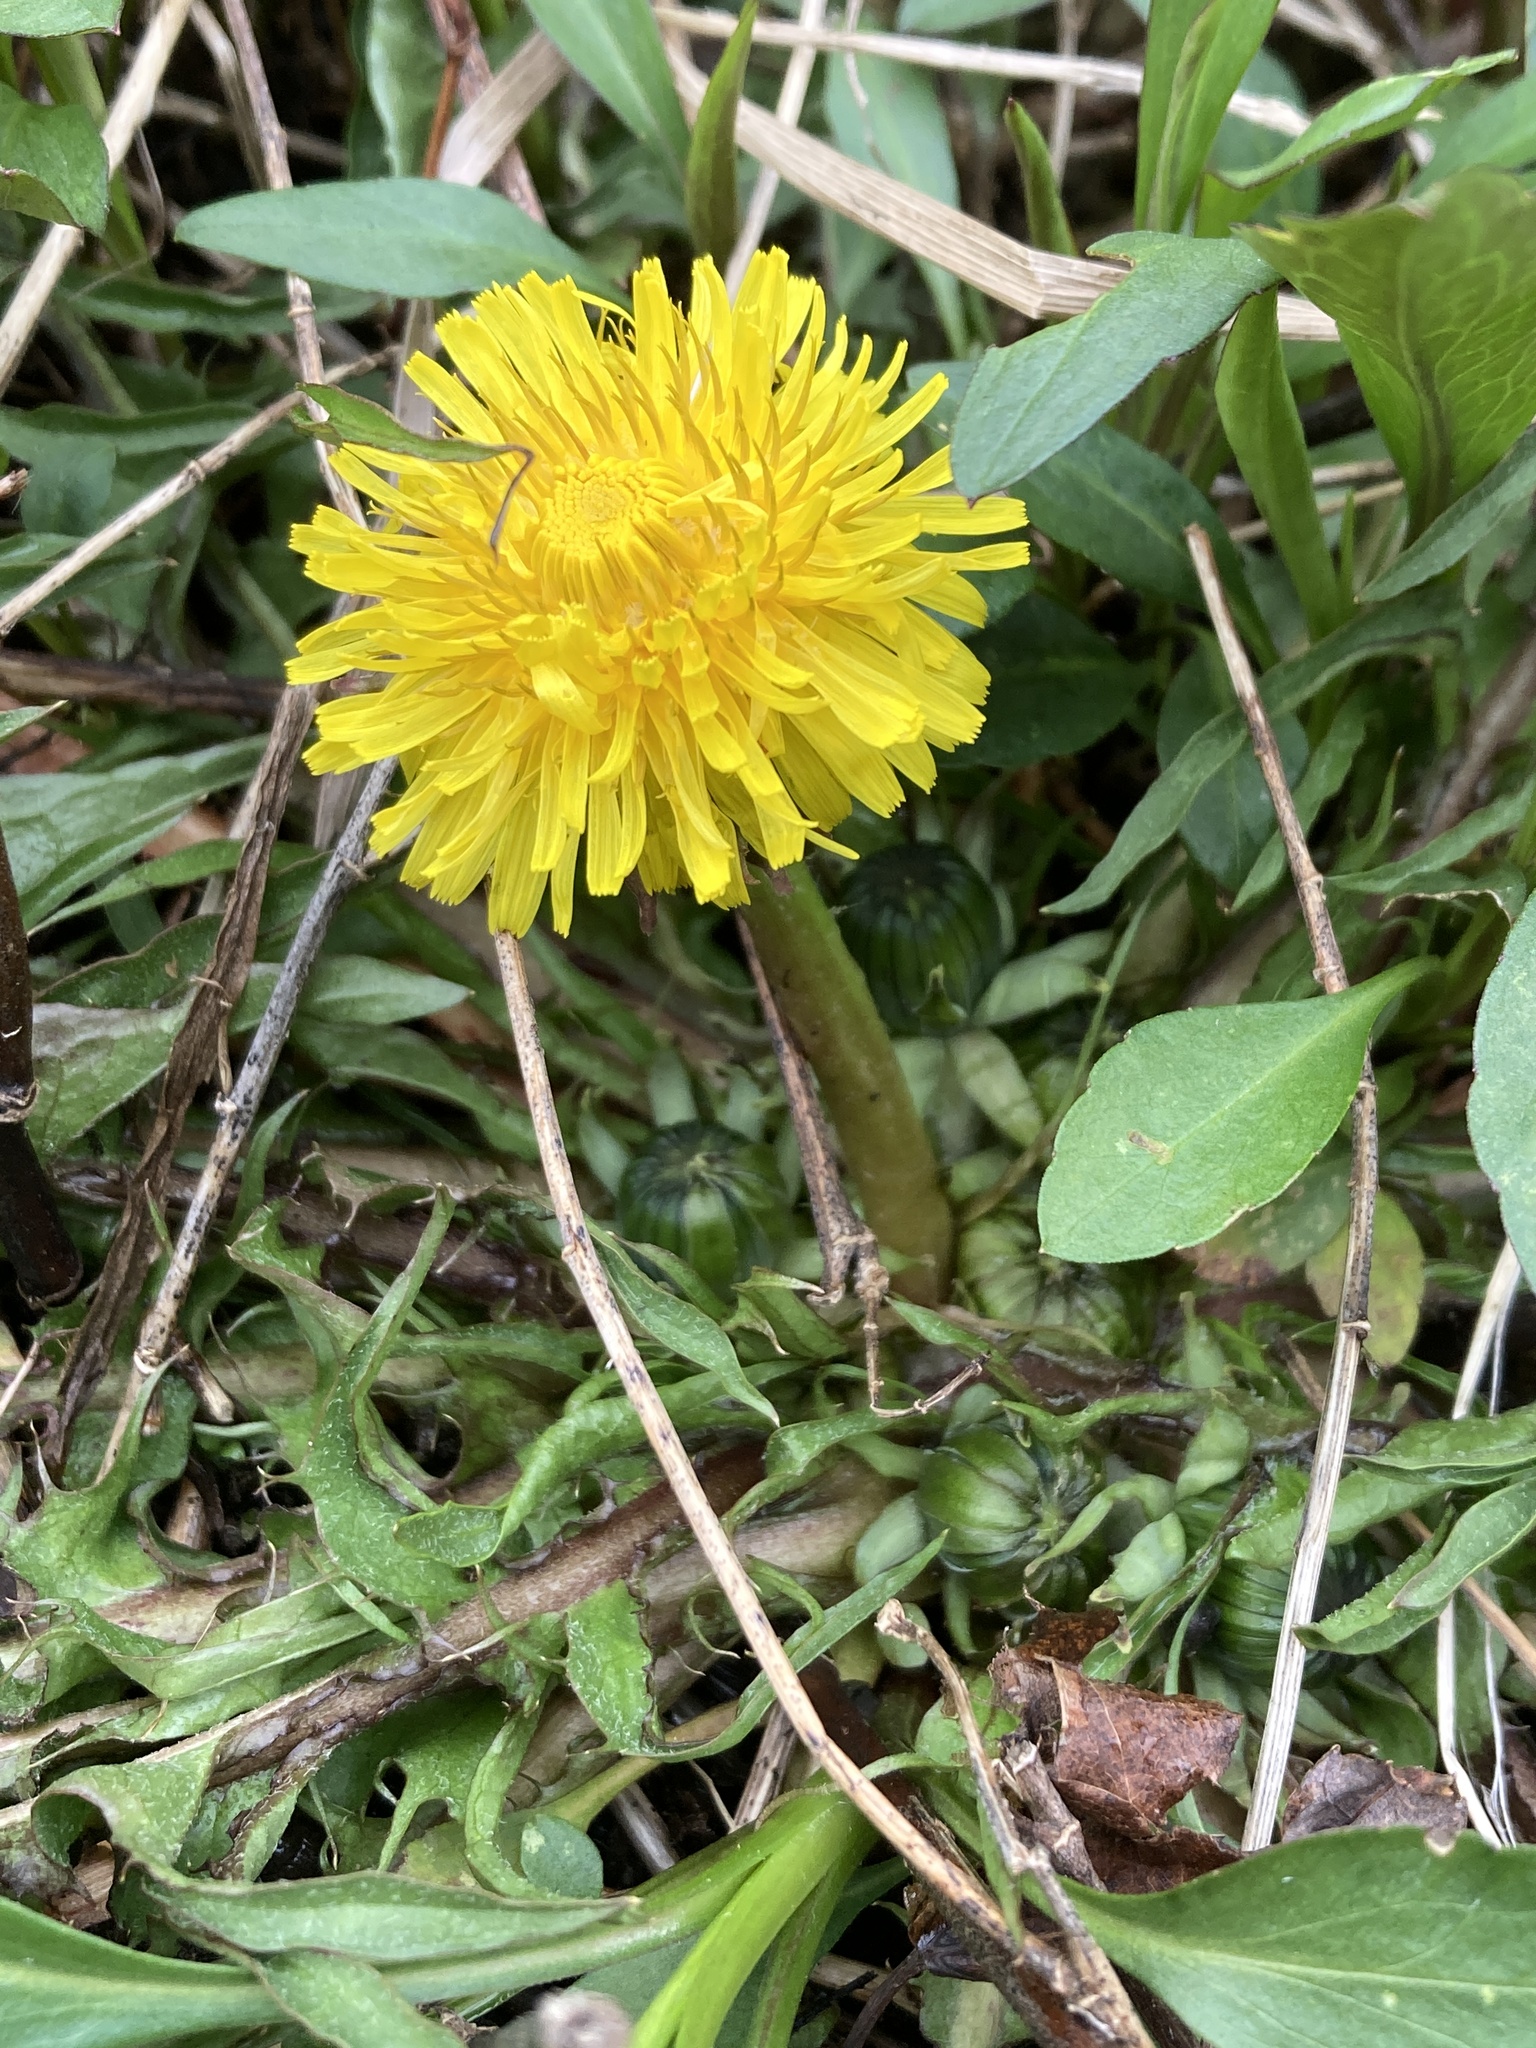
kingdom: Plantae
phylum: Tracheophyta
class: Magnoliopsida
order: Asterales
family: Asteraceae
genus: Taraxacum
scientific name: Taraxacum
